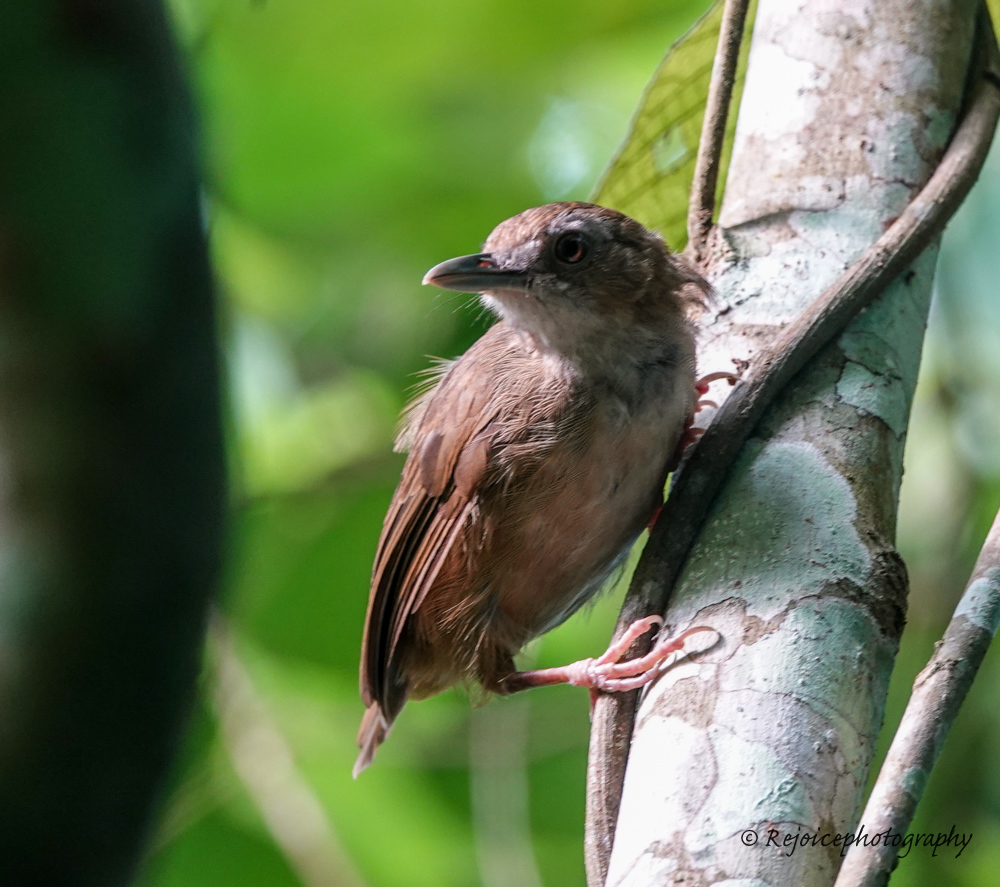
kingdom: Animalia
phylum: Chordata
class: Aves
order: Passeriformes
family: Pellorneidae
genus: Malacocincla
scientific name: Malacocincla abbotti
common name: Abbott's babbler
